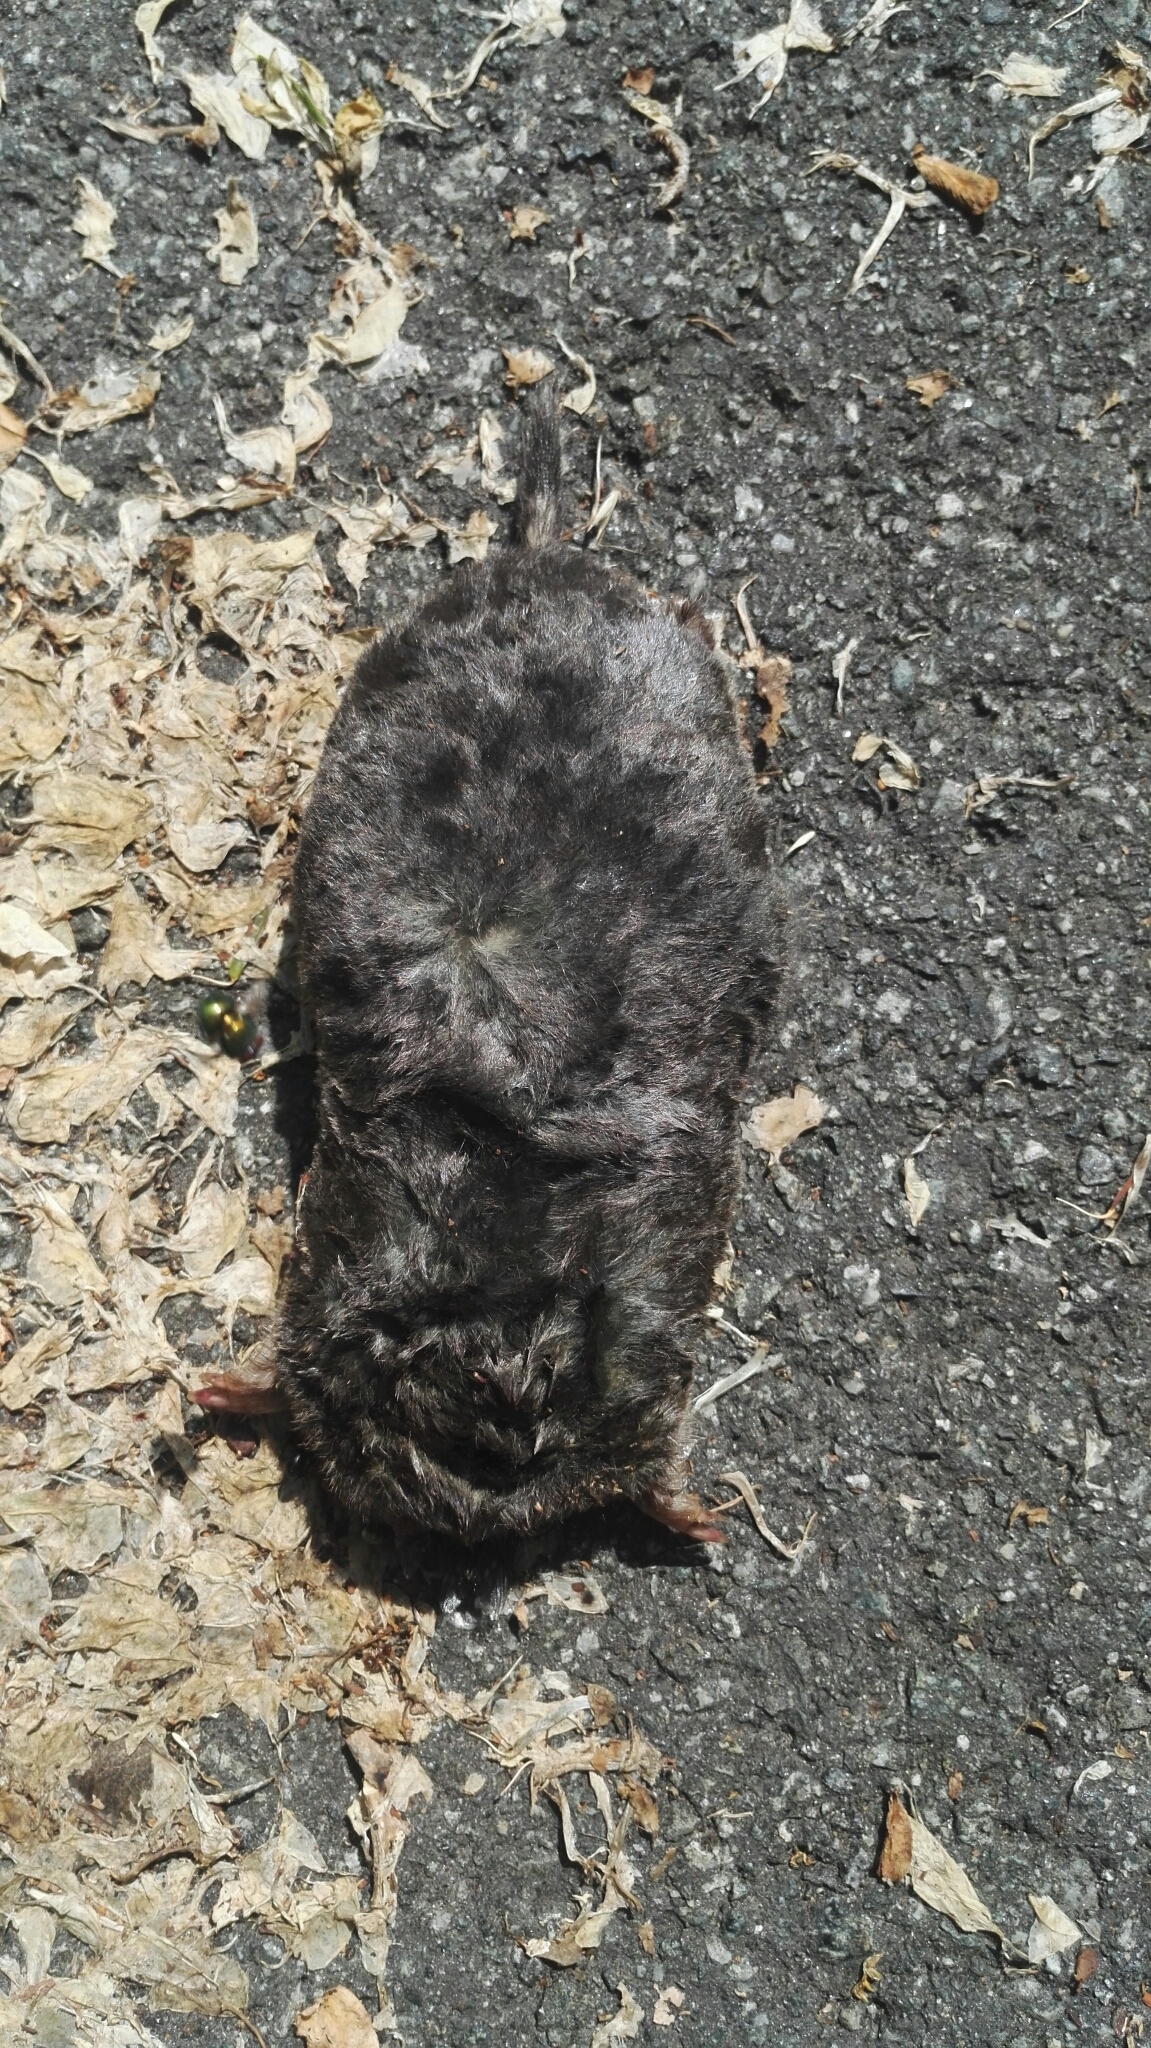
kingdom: Animalia
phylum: Chordata
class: Mammalia
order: Soricomorpha
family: Talpidae
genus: Talpa
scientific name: Talpa europaea
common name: European mole
